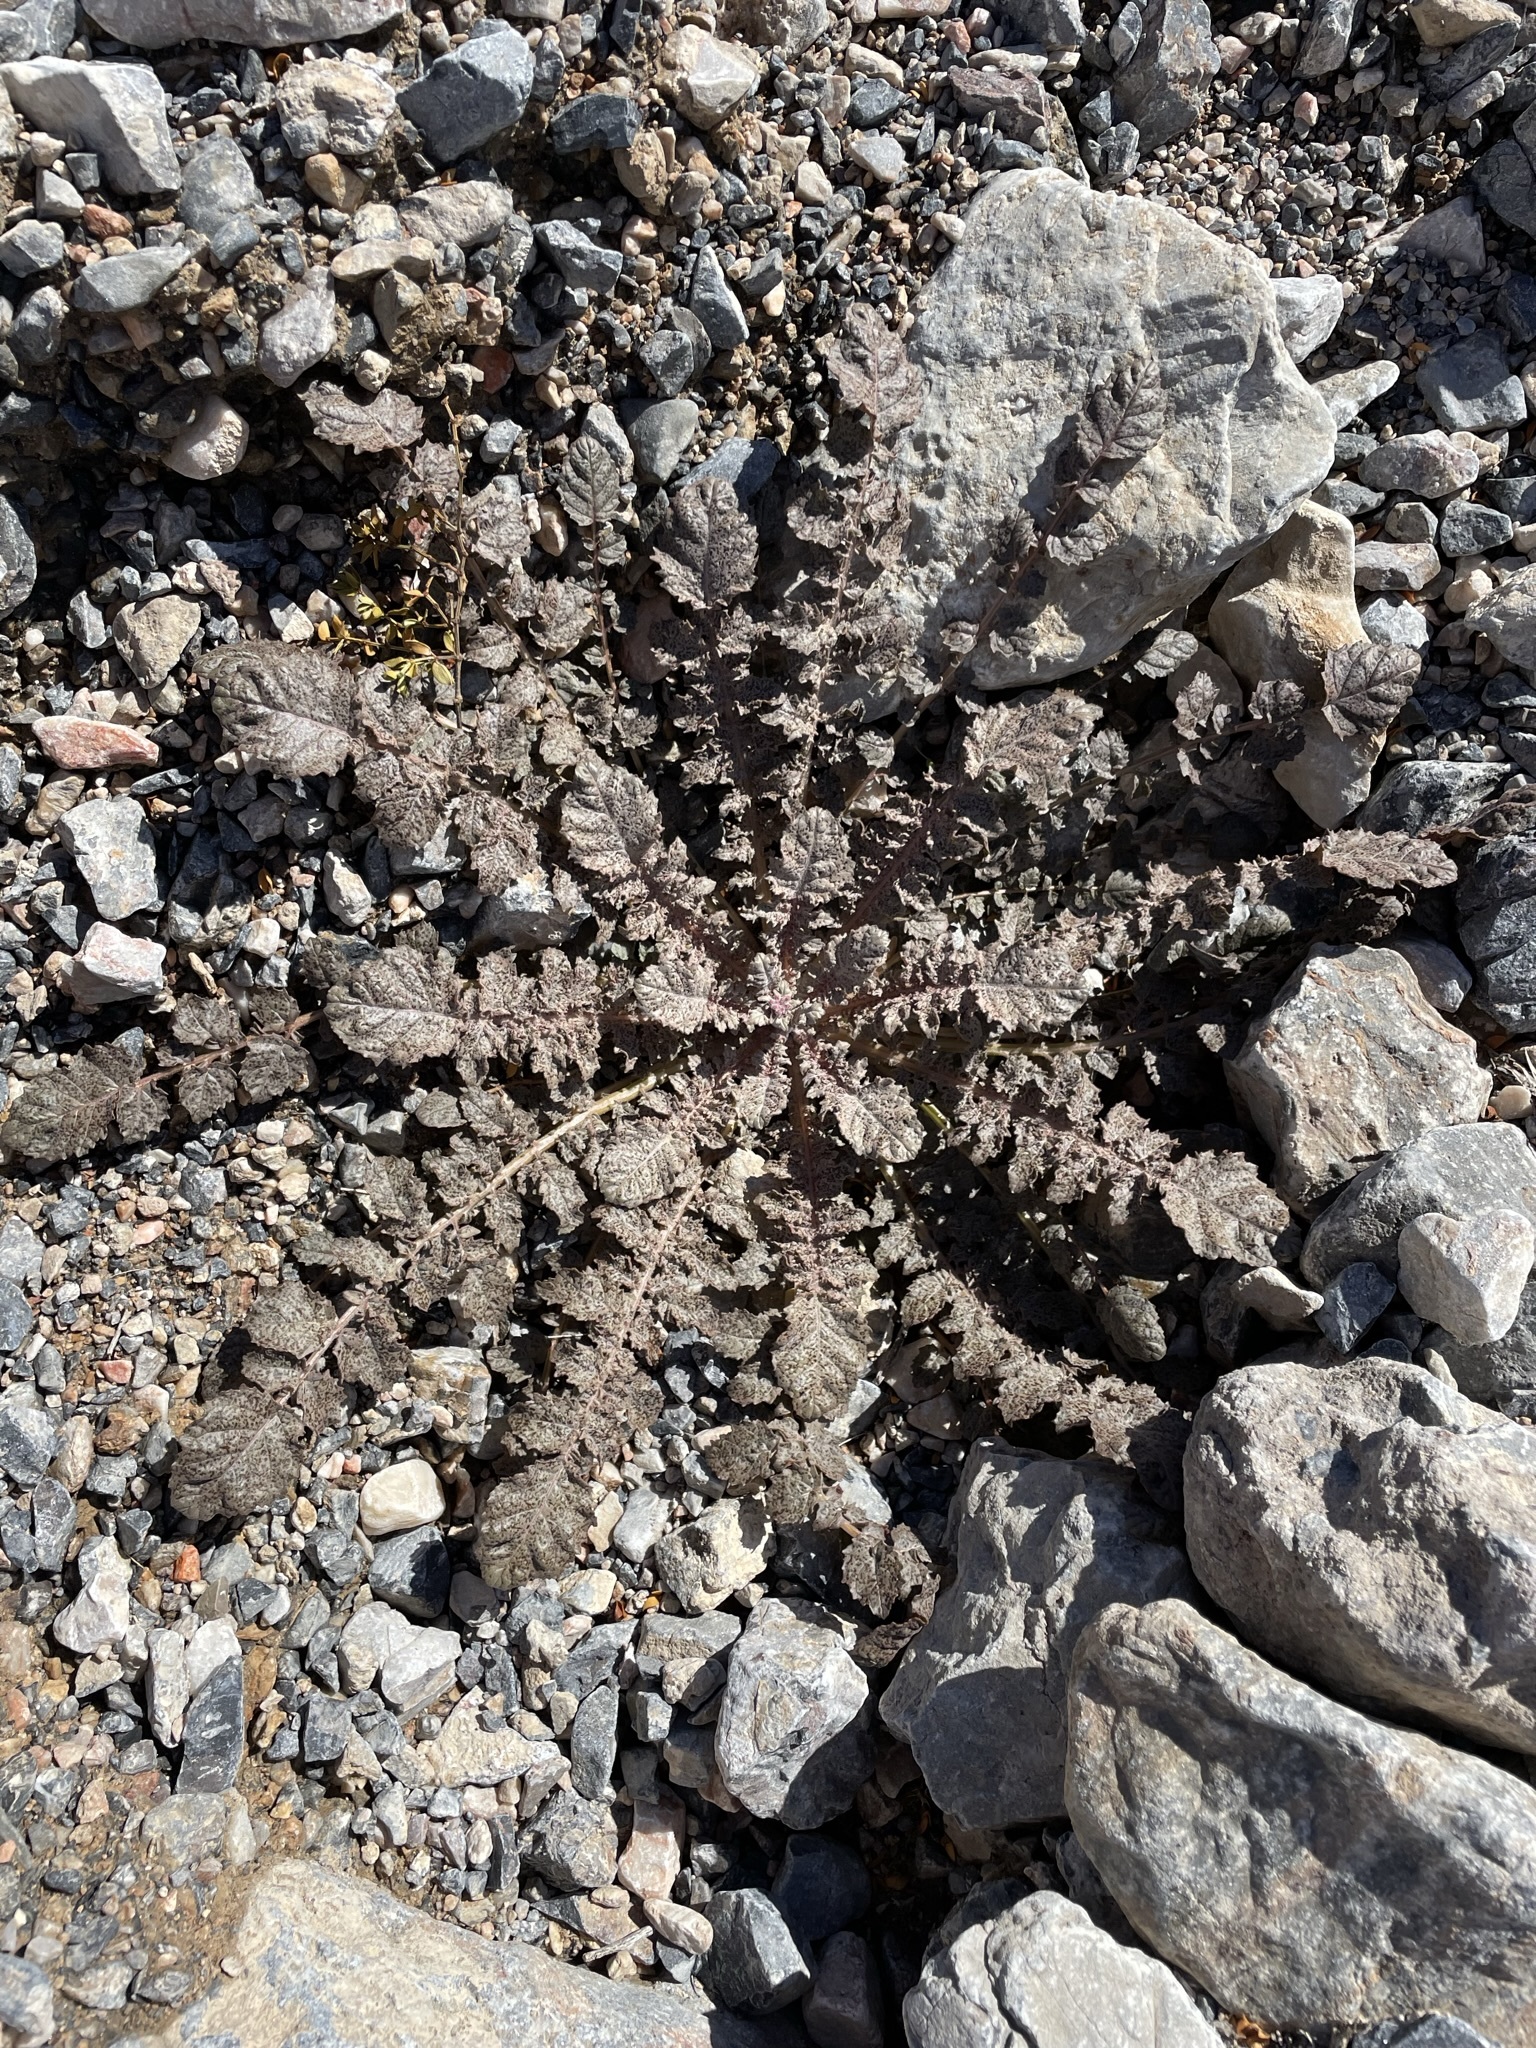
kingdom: Plantae
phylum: Tracheophyta
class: Magnoliopsida
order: Myrtales
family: Onagraceae
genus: Chylismia
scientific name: Chylismia walkeri
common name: Walker's suncup
